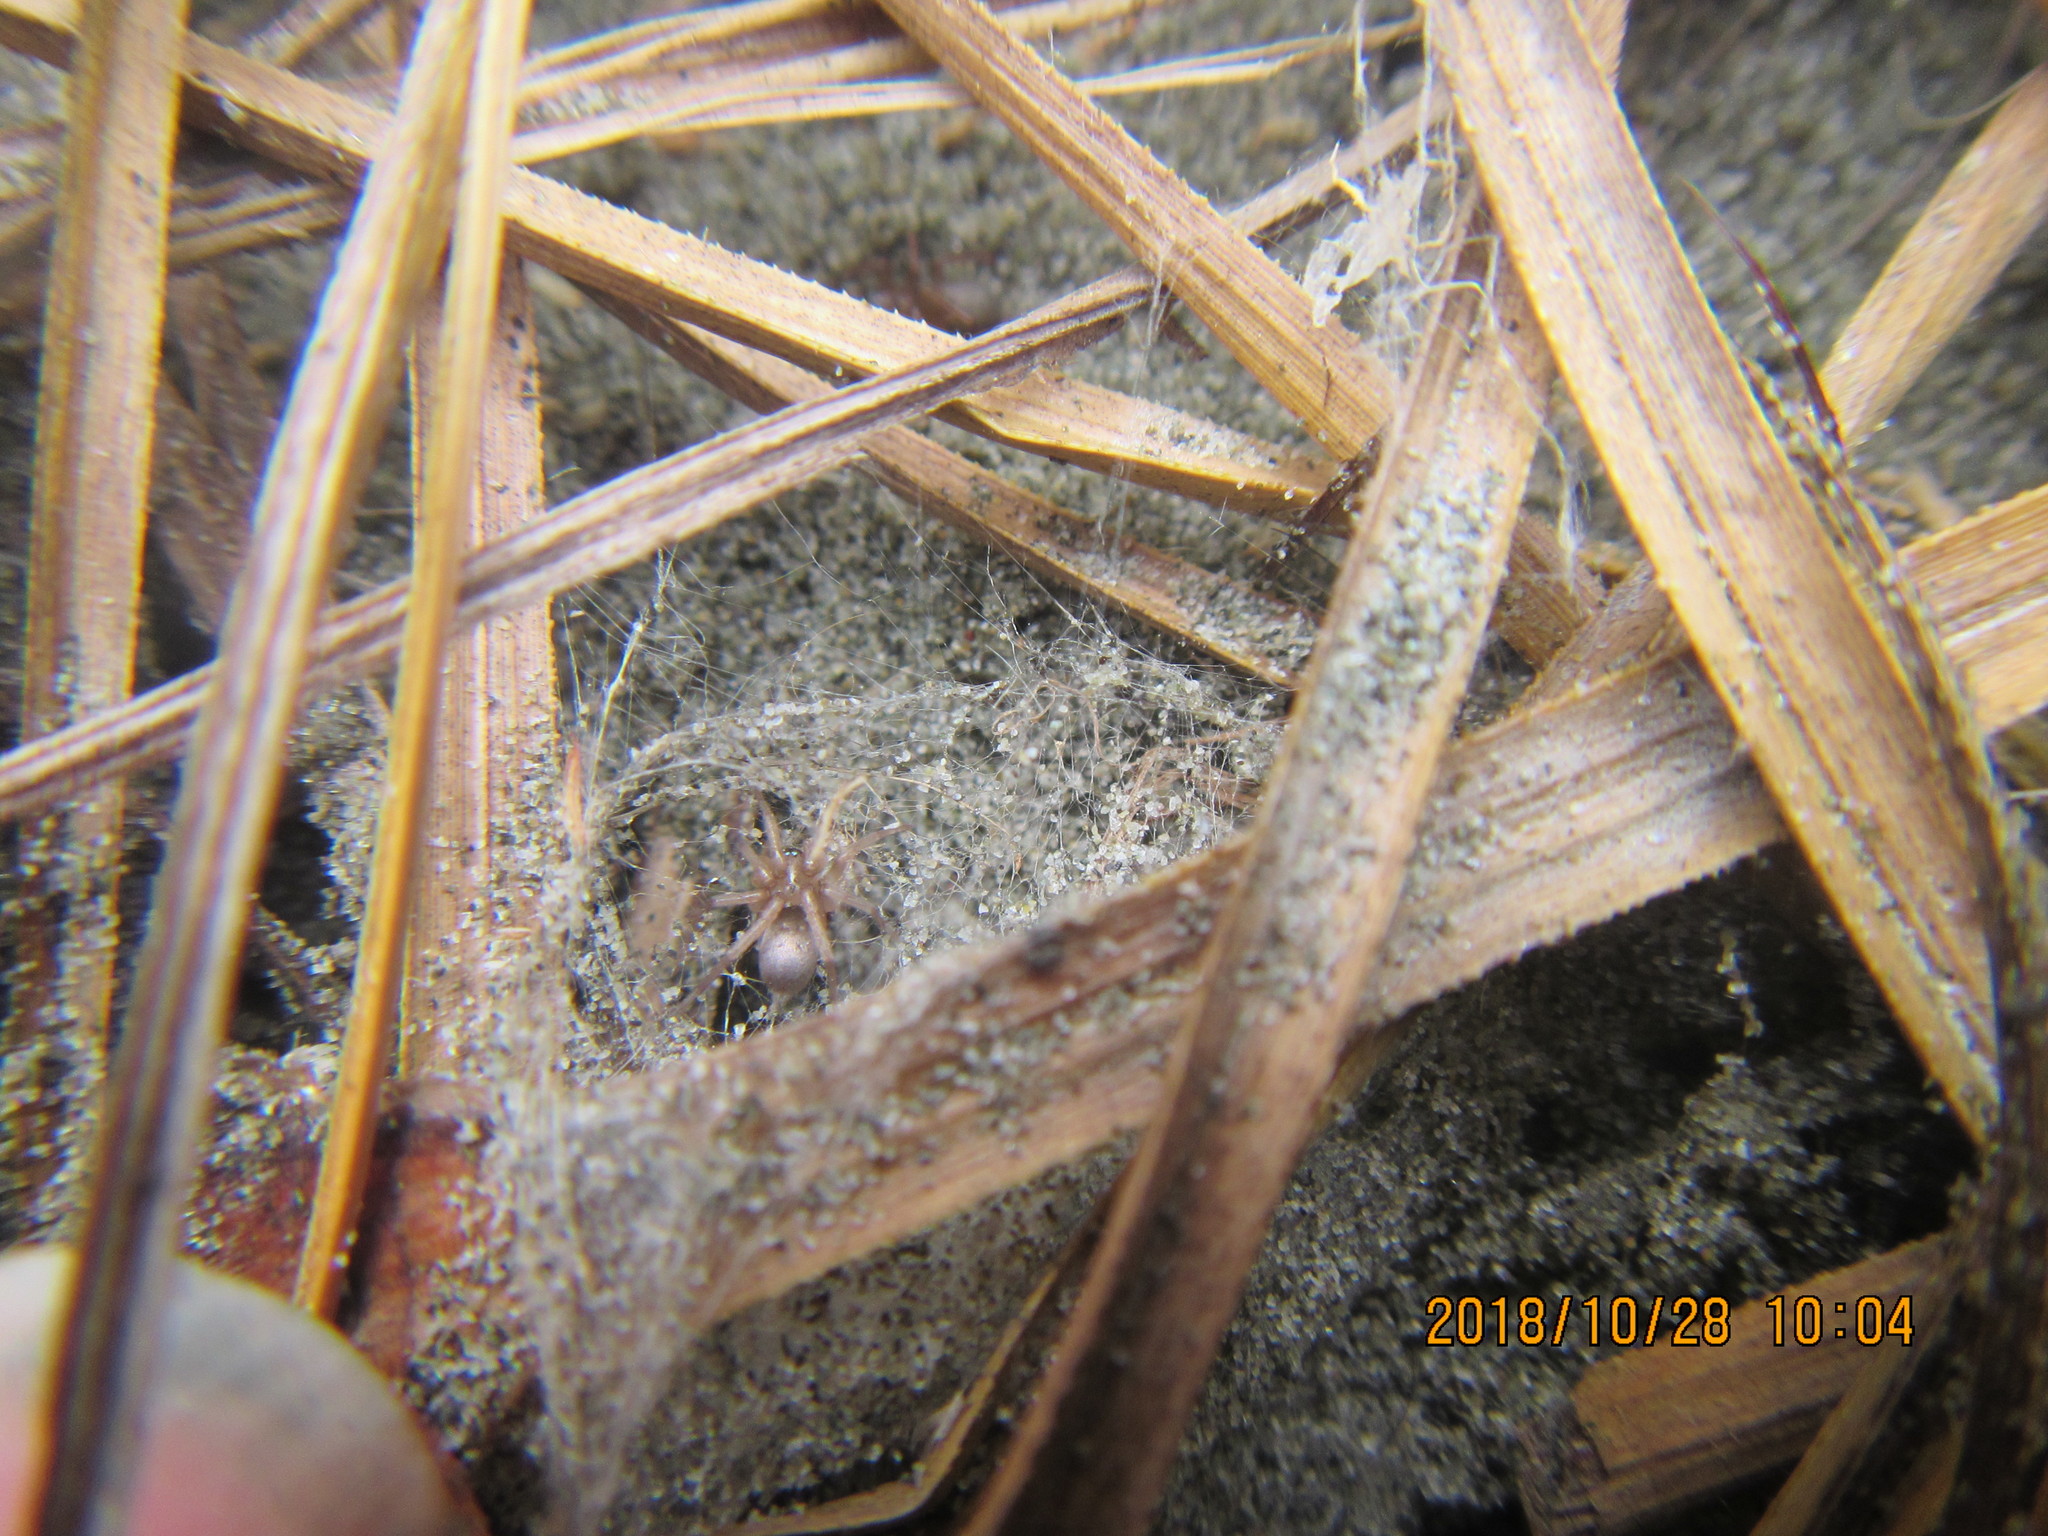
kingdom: Animalia
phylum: Arthropoda
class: Arachnida
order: Araneae
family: Gnaphosidae
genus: Anzacia
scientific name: Anzacia gemmea
